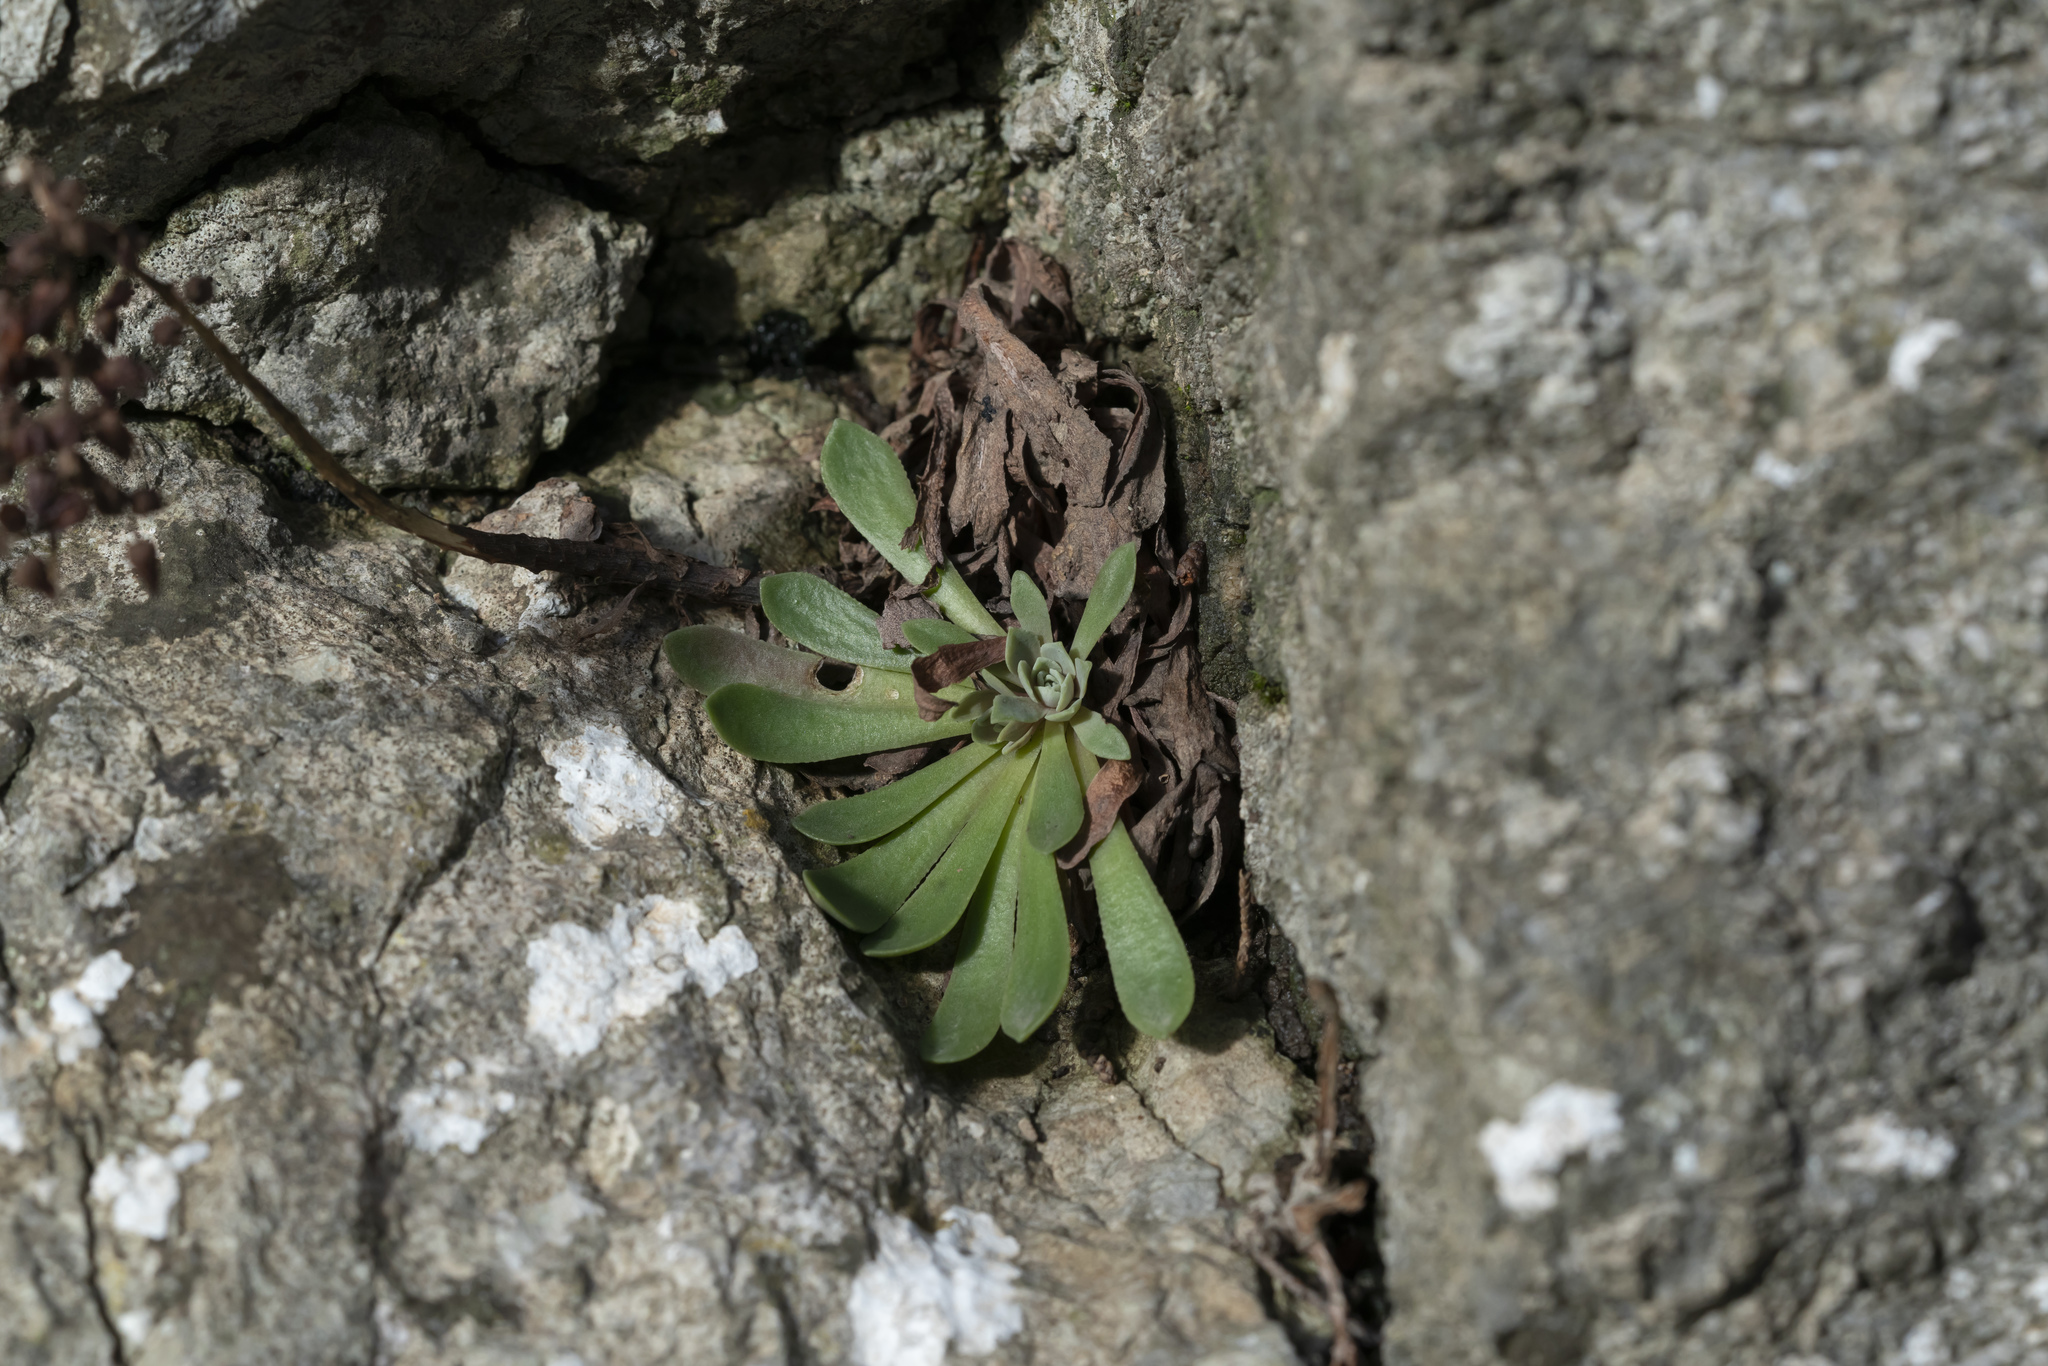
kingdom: Plantae
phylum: Tracheophyta
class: Magnoliopsida
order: Saxifragales
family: Crassulaceae
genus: Rosularia
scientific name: Rosularia serrata
